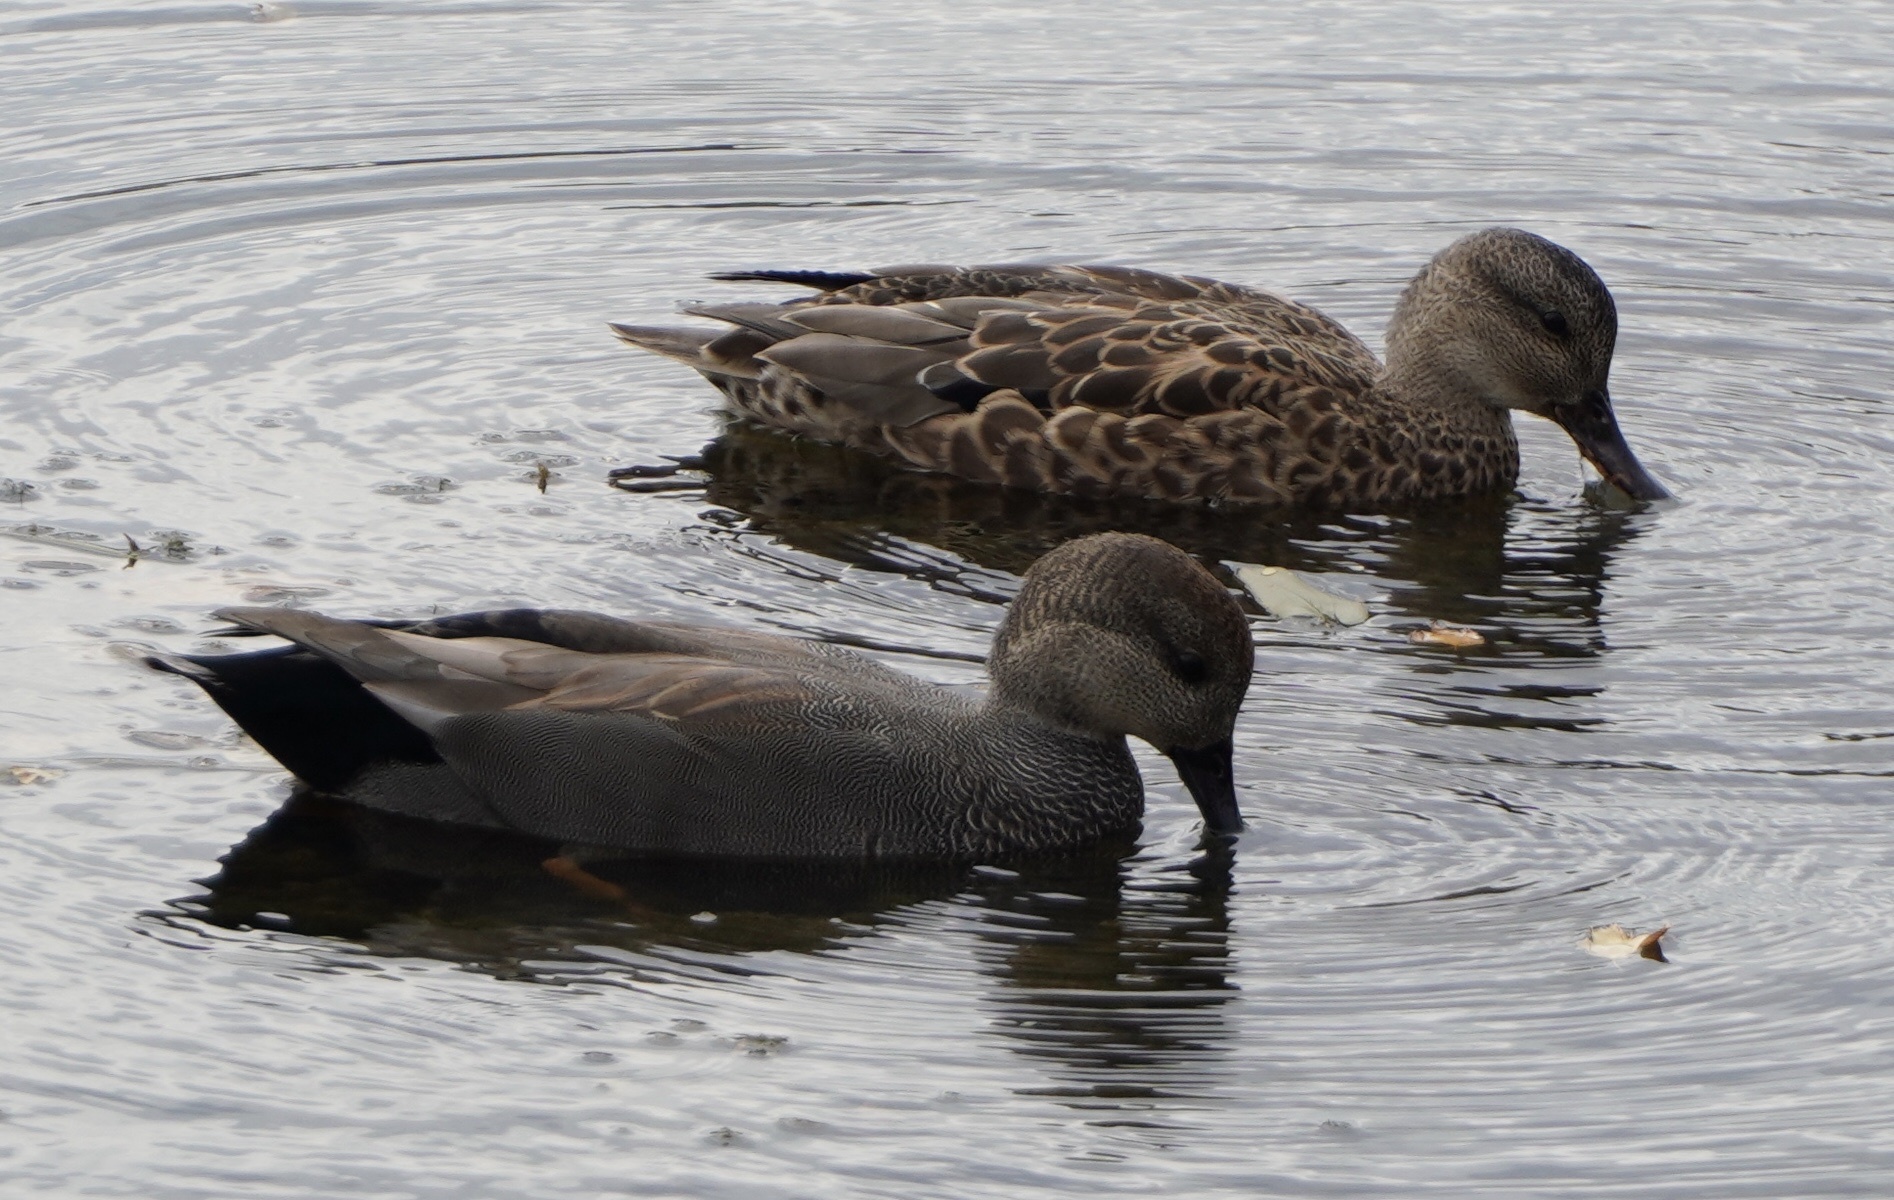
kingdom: Animalia
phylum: Chordata
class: Aves
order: Anseriformes
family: Anatidae
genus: Mareca
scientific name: Mareca strepera
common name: Gadwall
